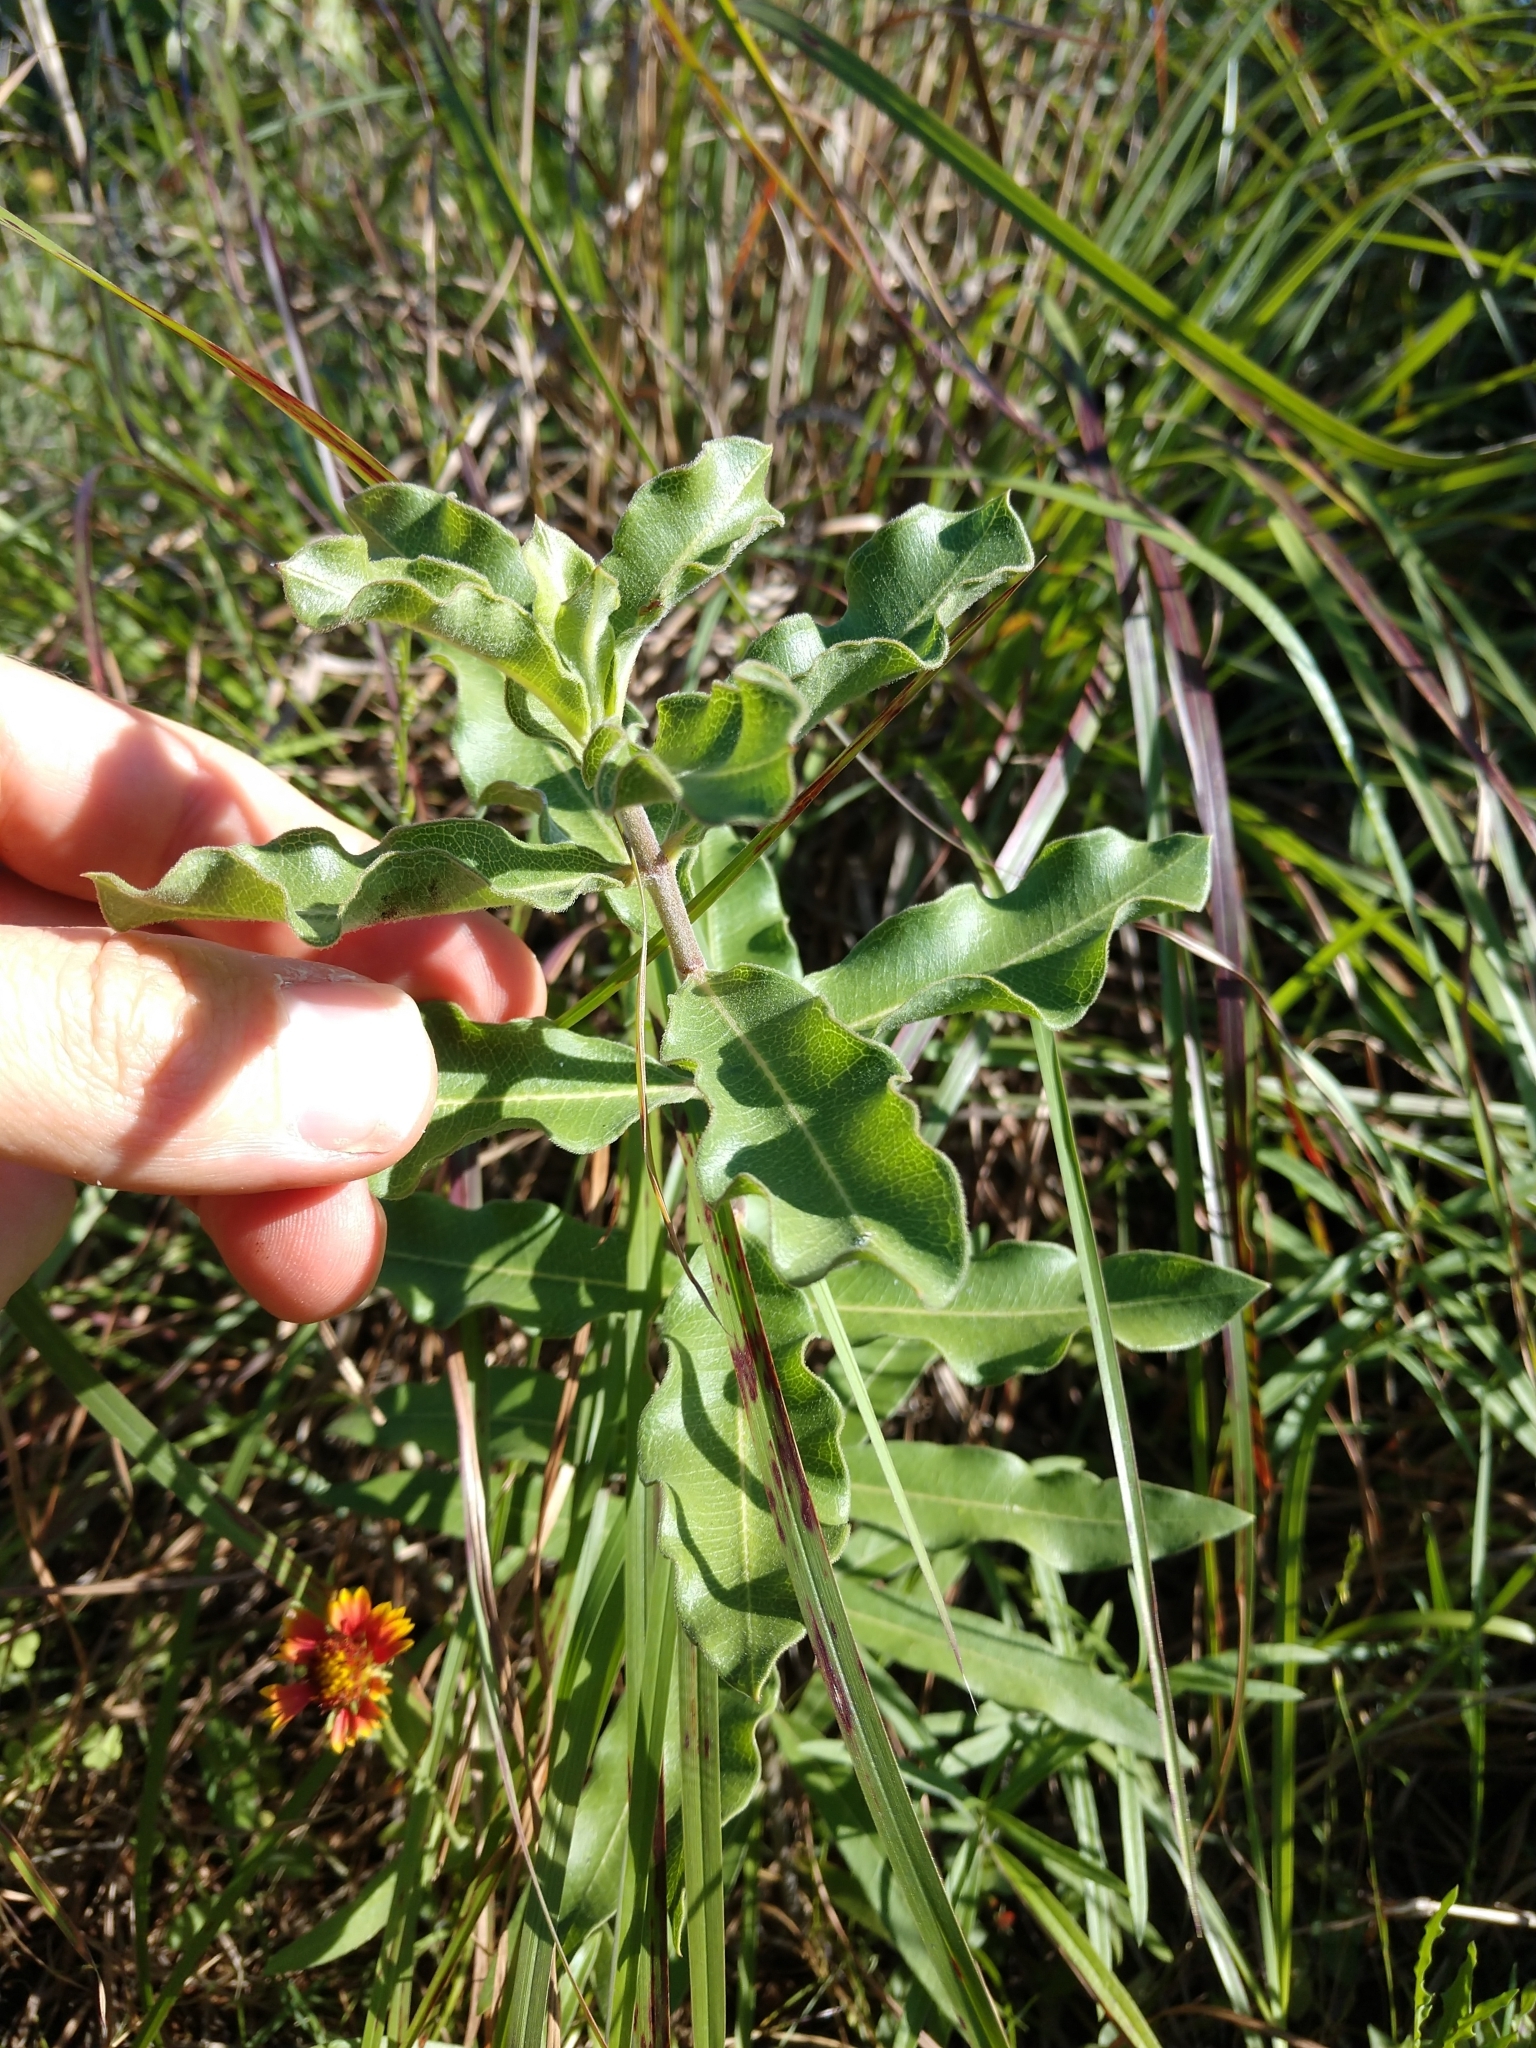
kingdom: Plantae
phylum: Tracheophyta
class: Magnoliopsida
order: Gentianales
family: Apocynaceae
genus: Asclepias
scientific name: Asclepias viridiflora
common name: Green comet milkweed
